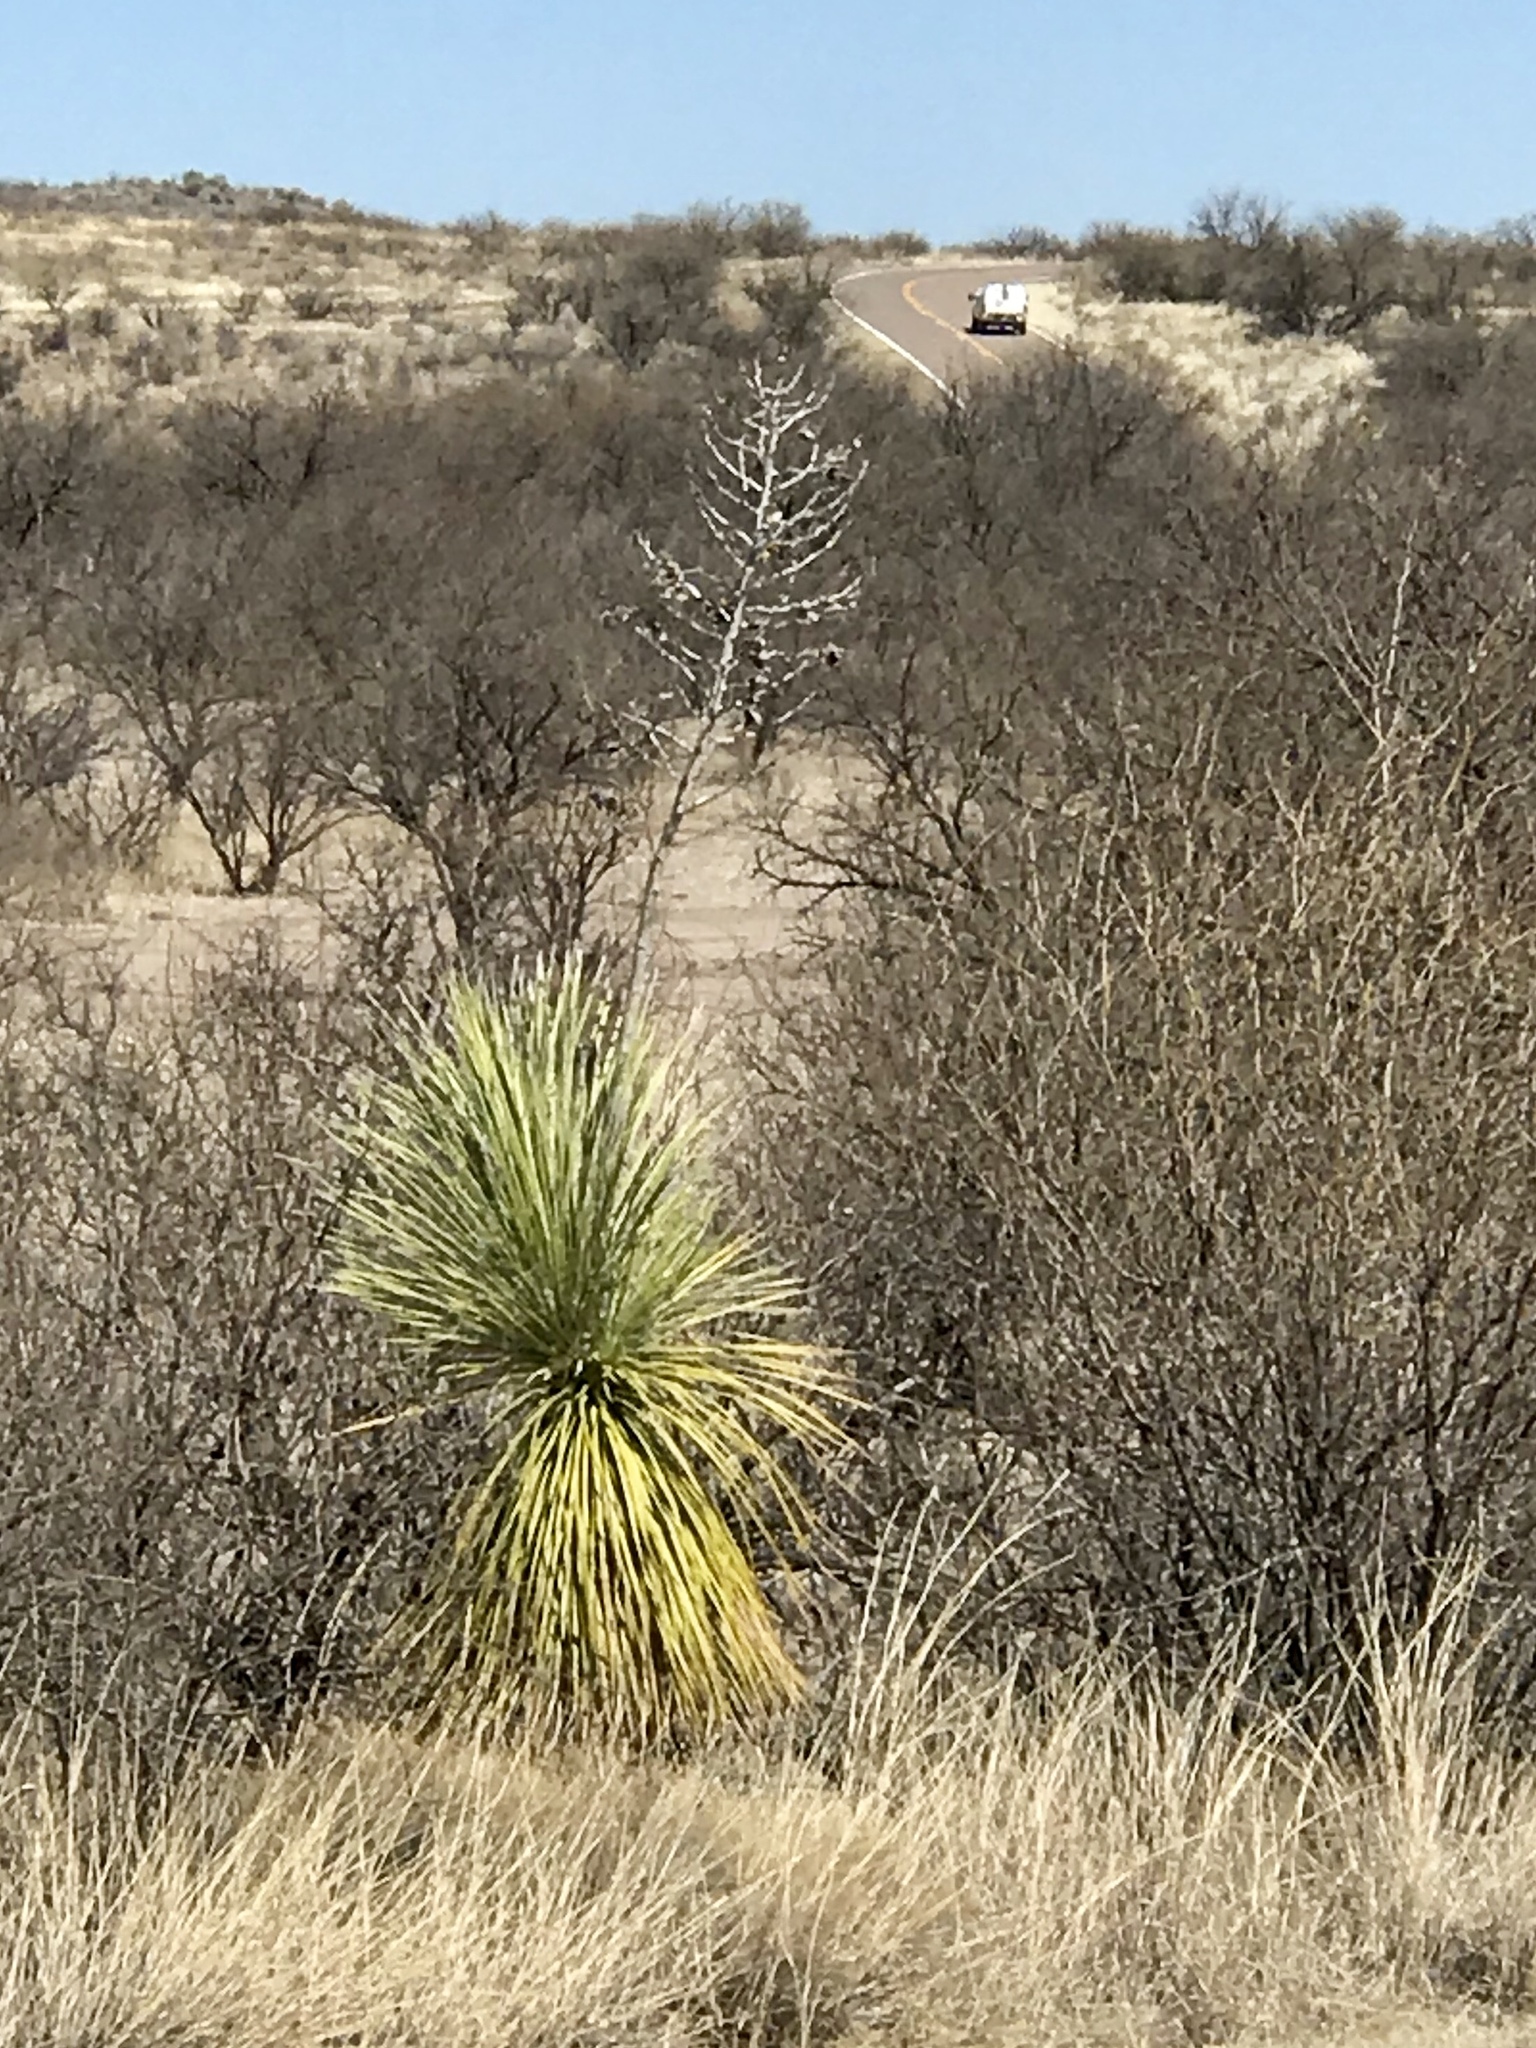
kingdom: Plantae
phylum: Tracheophyta
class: Liliopsida
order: Asparagales
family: Asparagaceae
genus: Yucca
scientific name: Yucca elata
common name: Palmella
